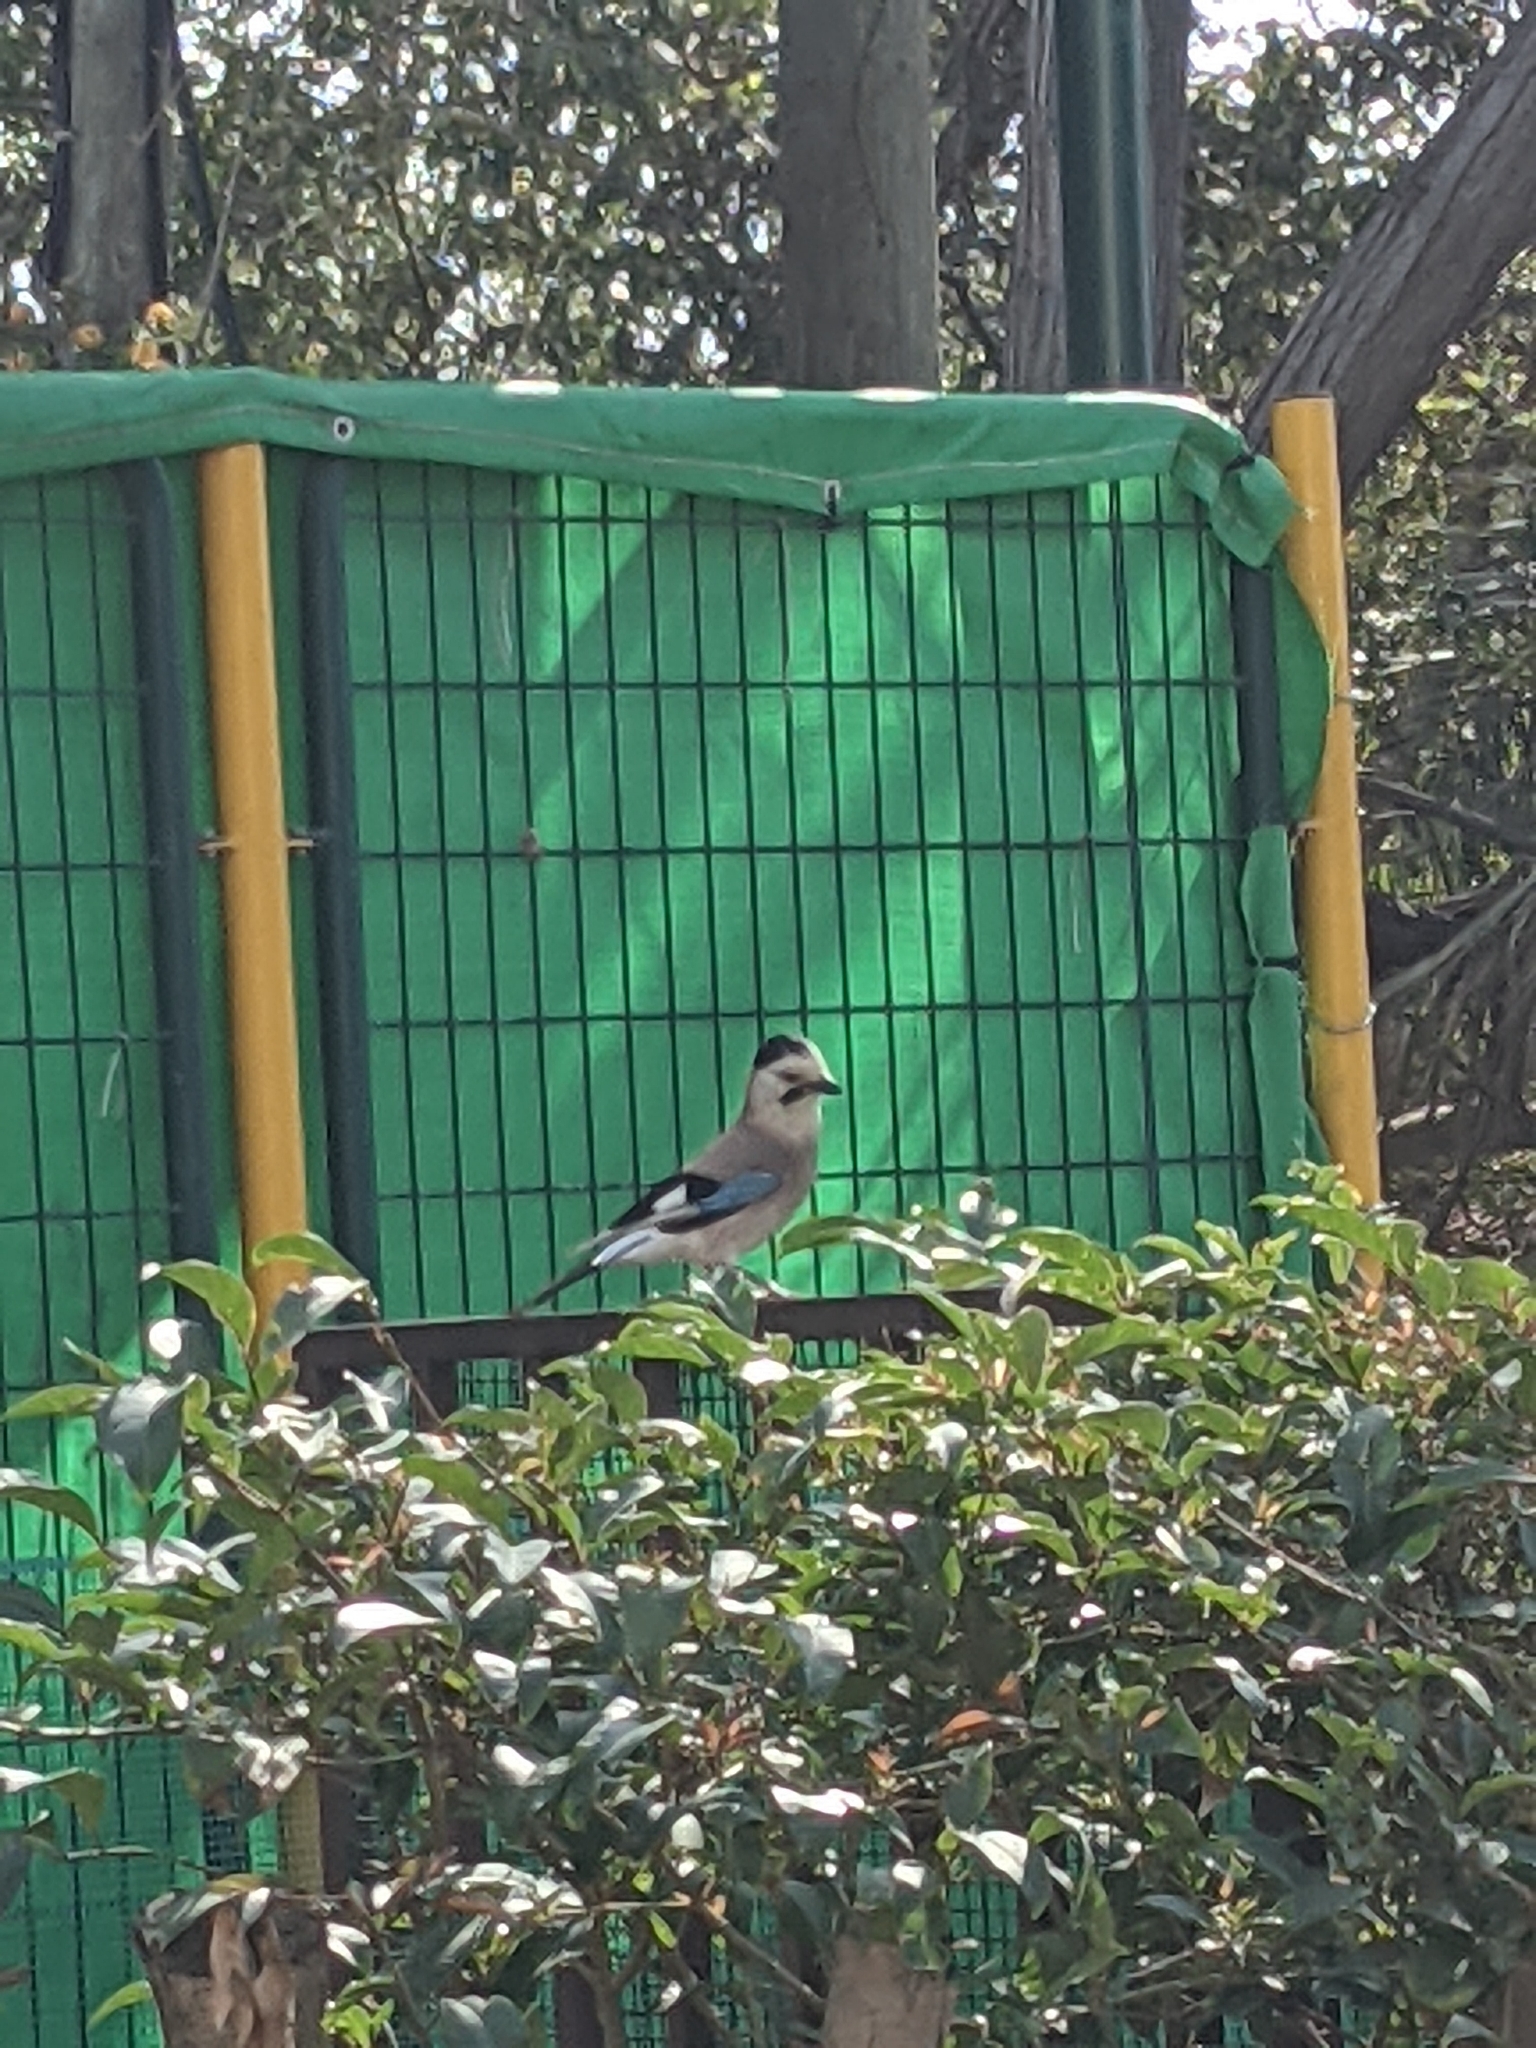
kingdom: Animalia
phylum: Chordata
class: Aves
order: Passeriformes
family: Corvidae
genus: Garrulus
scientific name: Garrulus glandarius
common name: Eurasian jay
